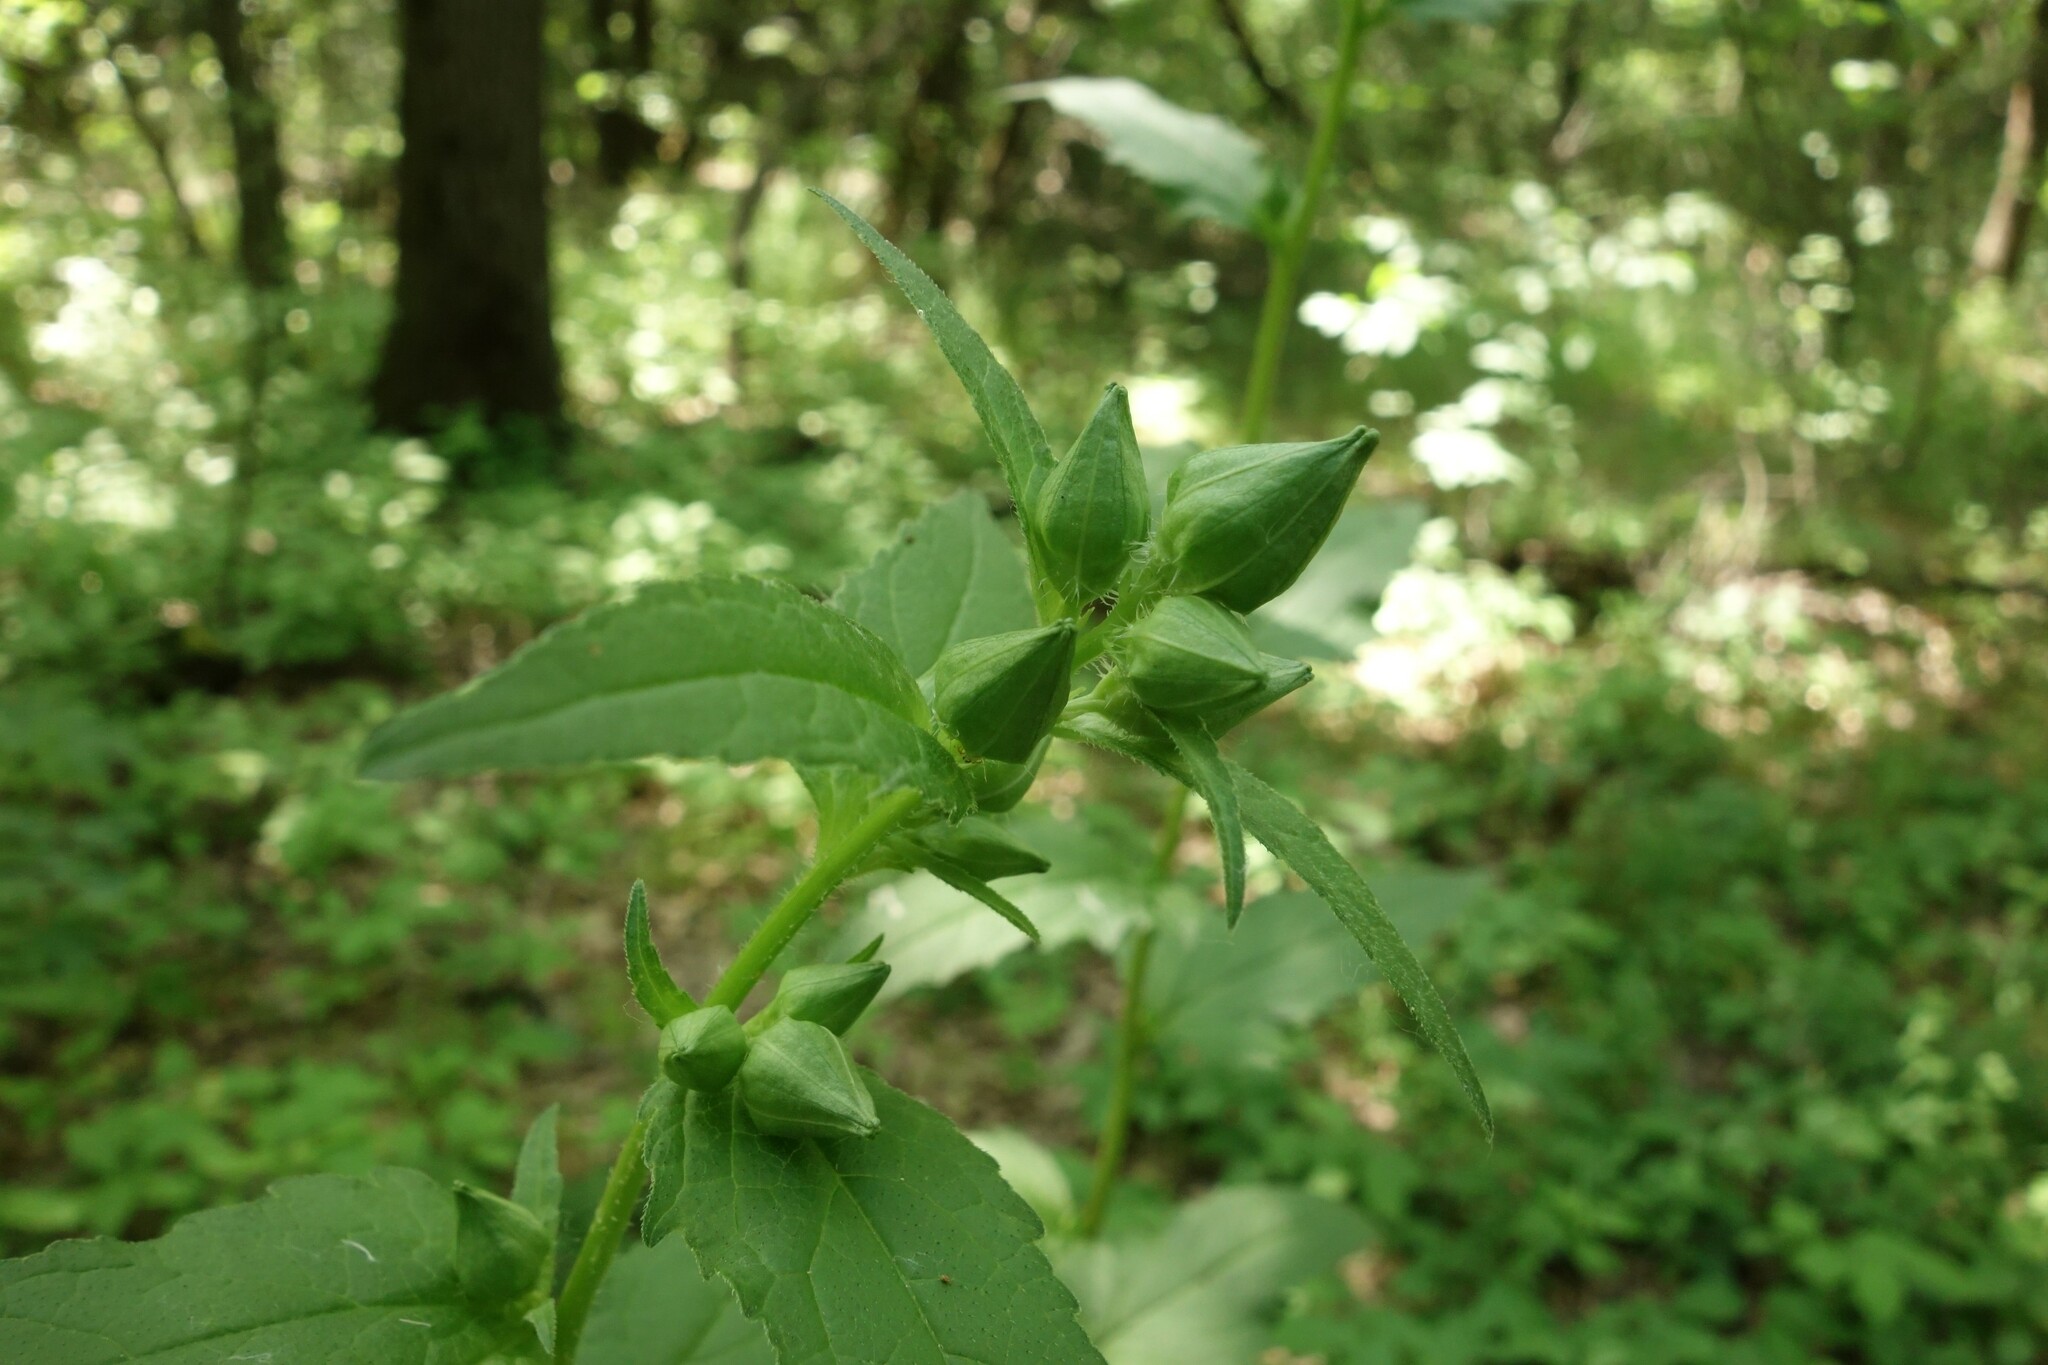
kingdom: Plantae
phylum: Tracheophyta
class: Magnoliopsida
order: Asterales
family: Campanulaceae
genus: Campanula
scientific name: Campanula trachelium
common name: Nettle-leaved bellflower
